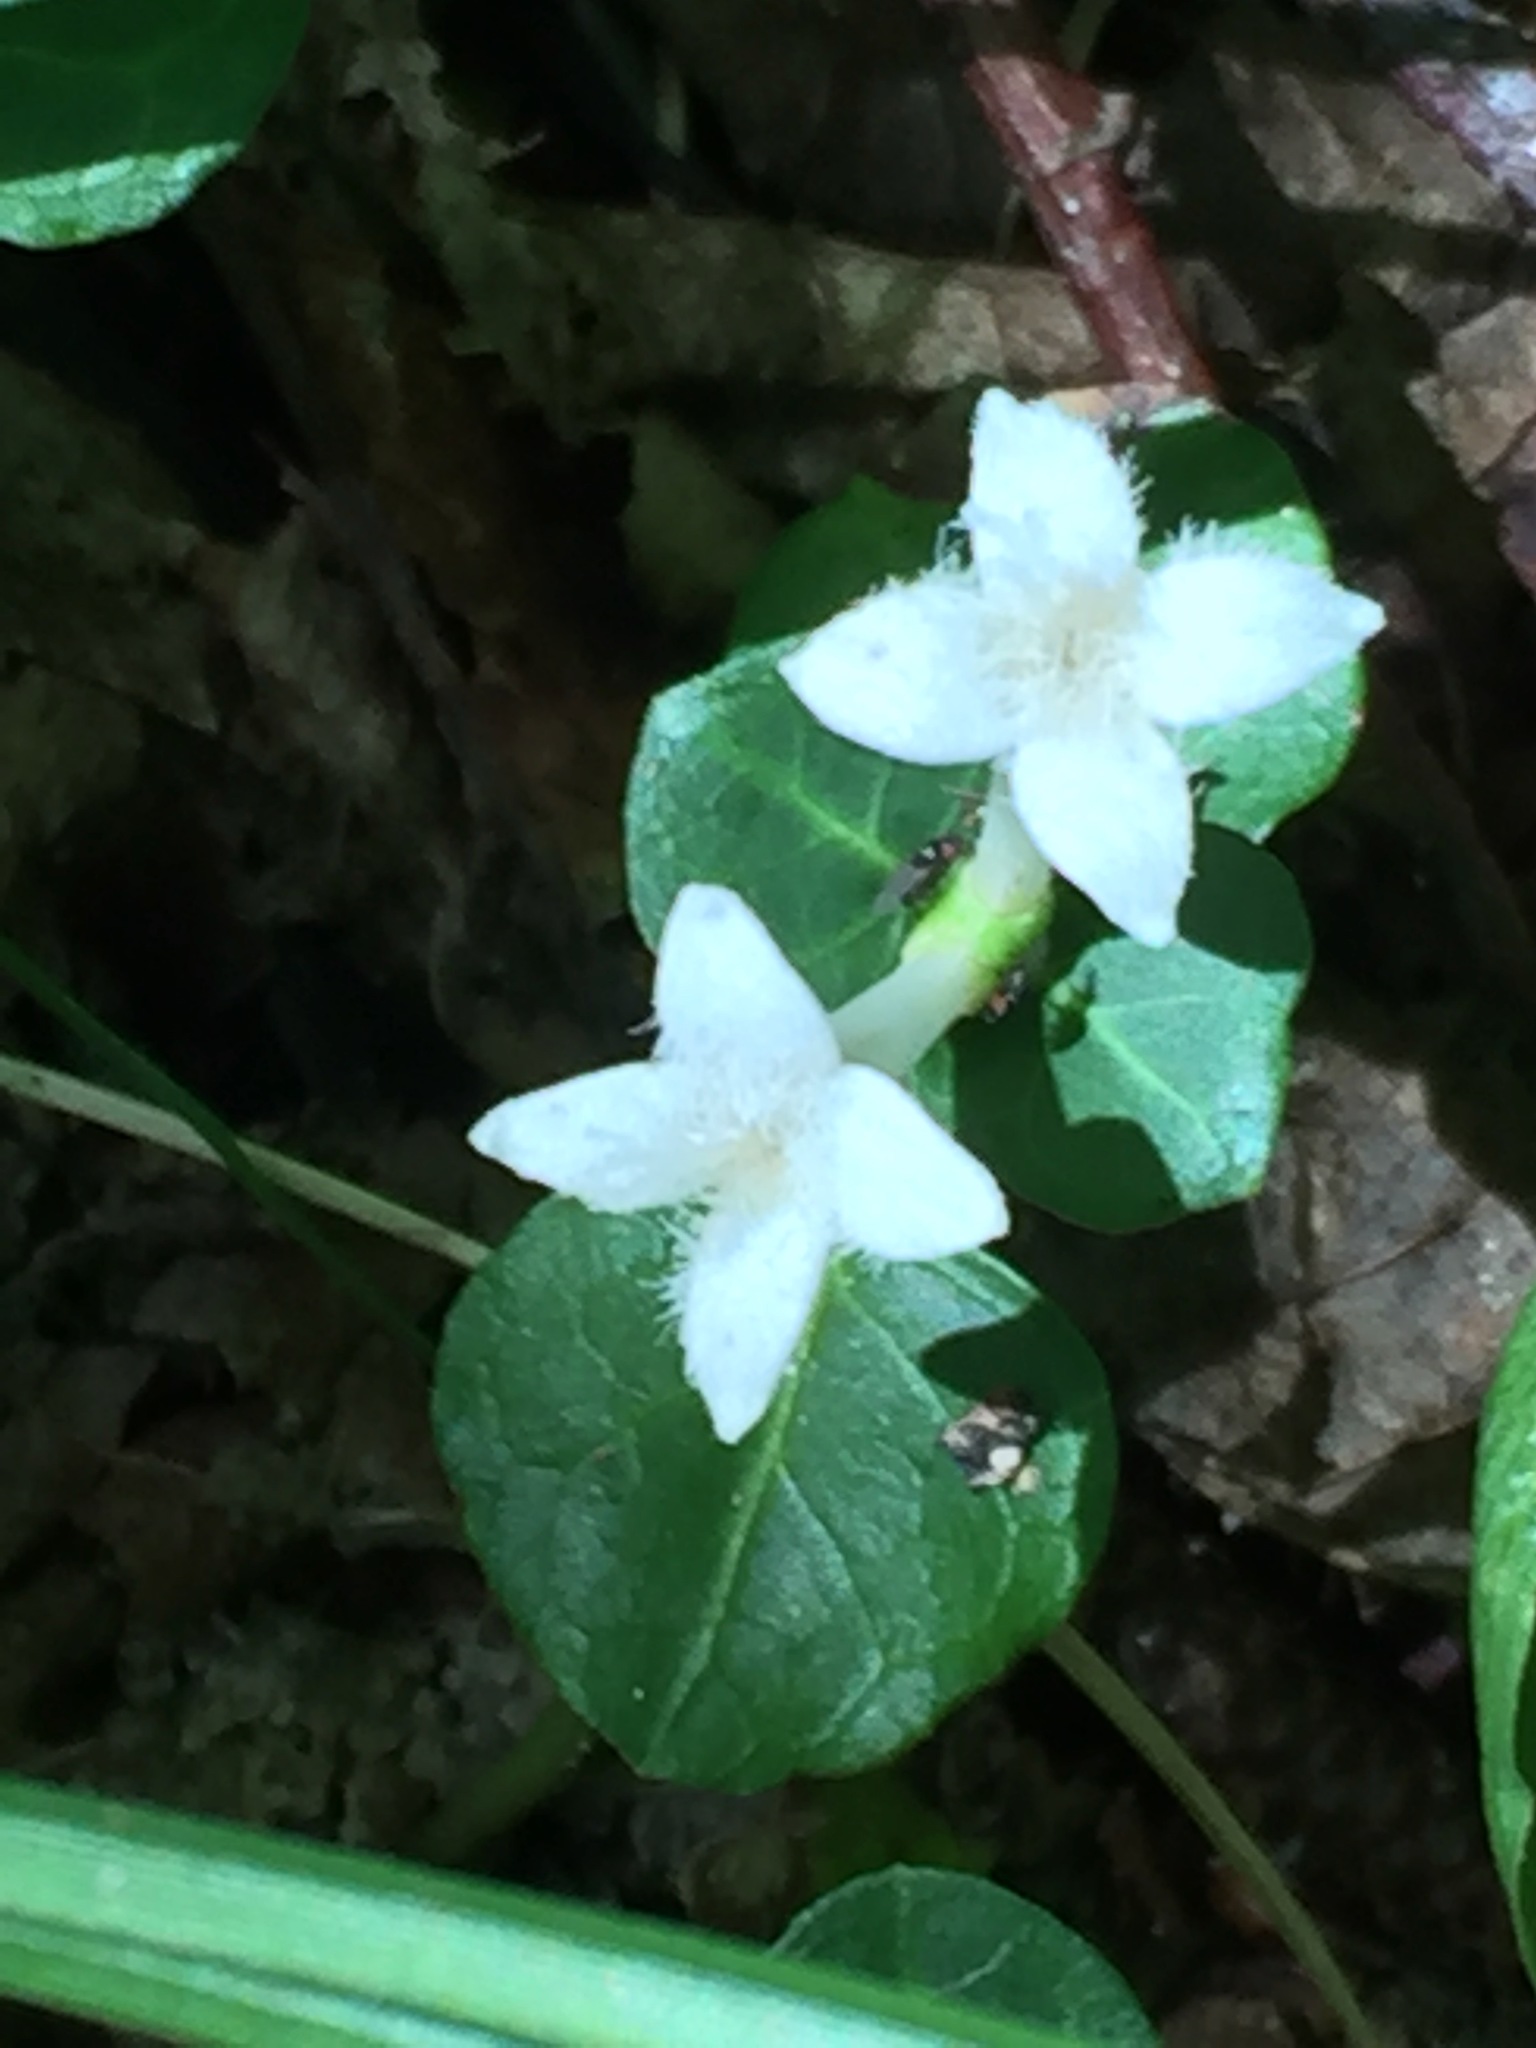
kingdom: Plantae
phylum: Tracheophyta
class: Magnoliopsida
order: Gentianales
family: Rubiaceae
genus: Mitchella
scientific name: Mitchella repens
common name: Partridge-berry
